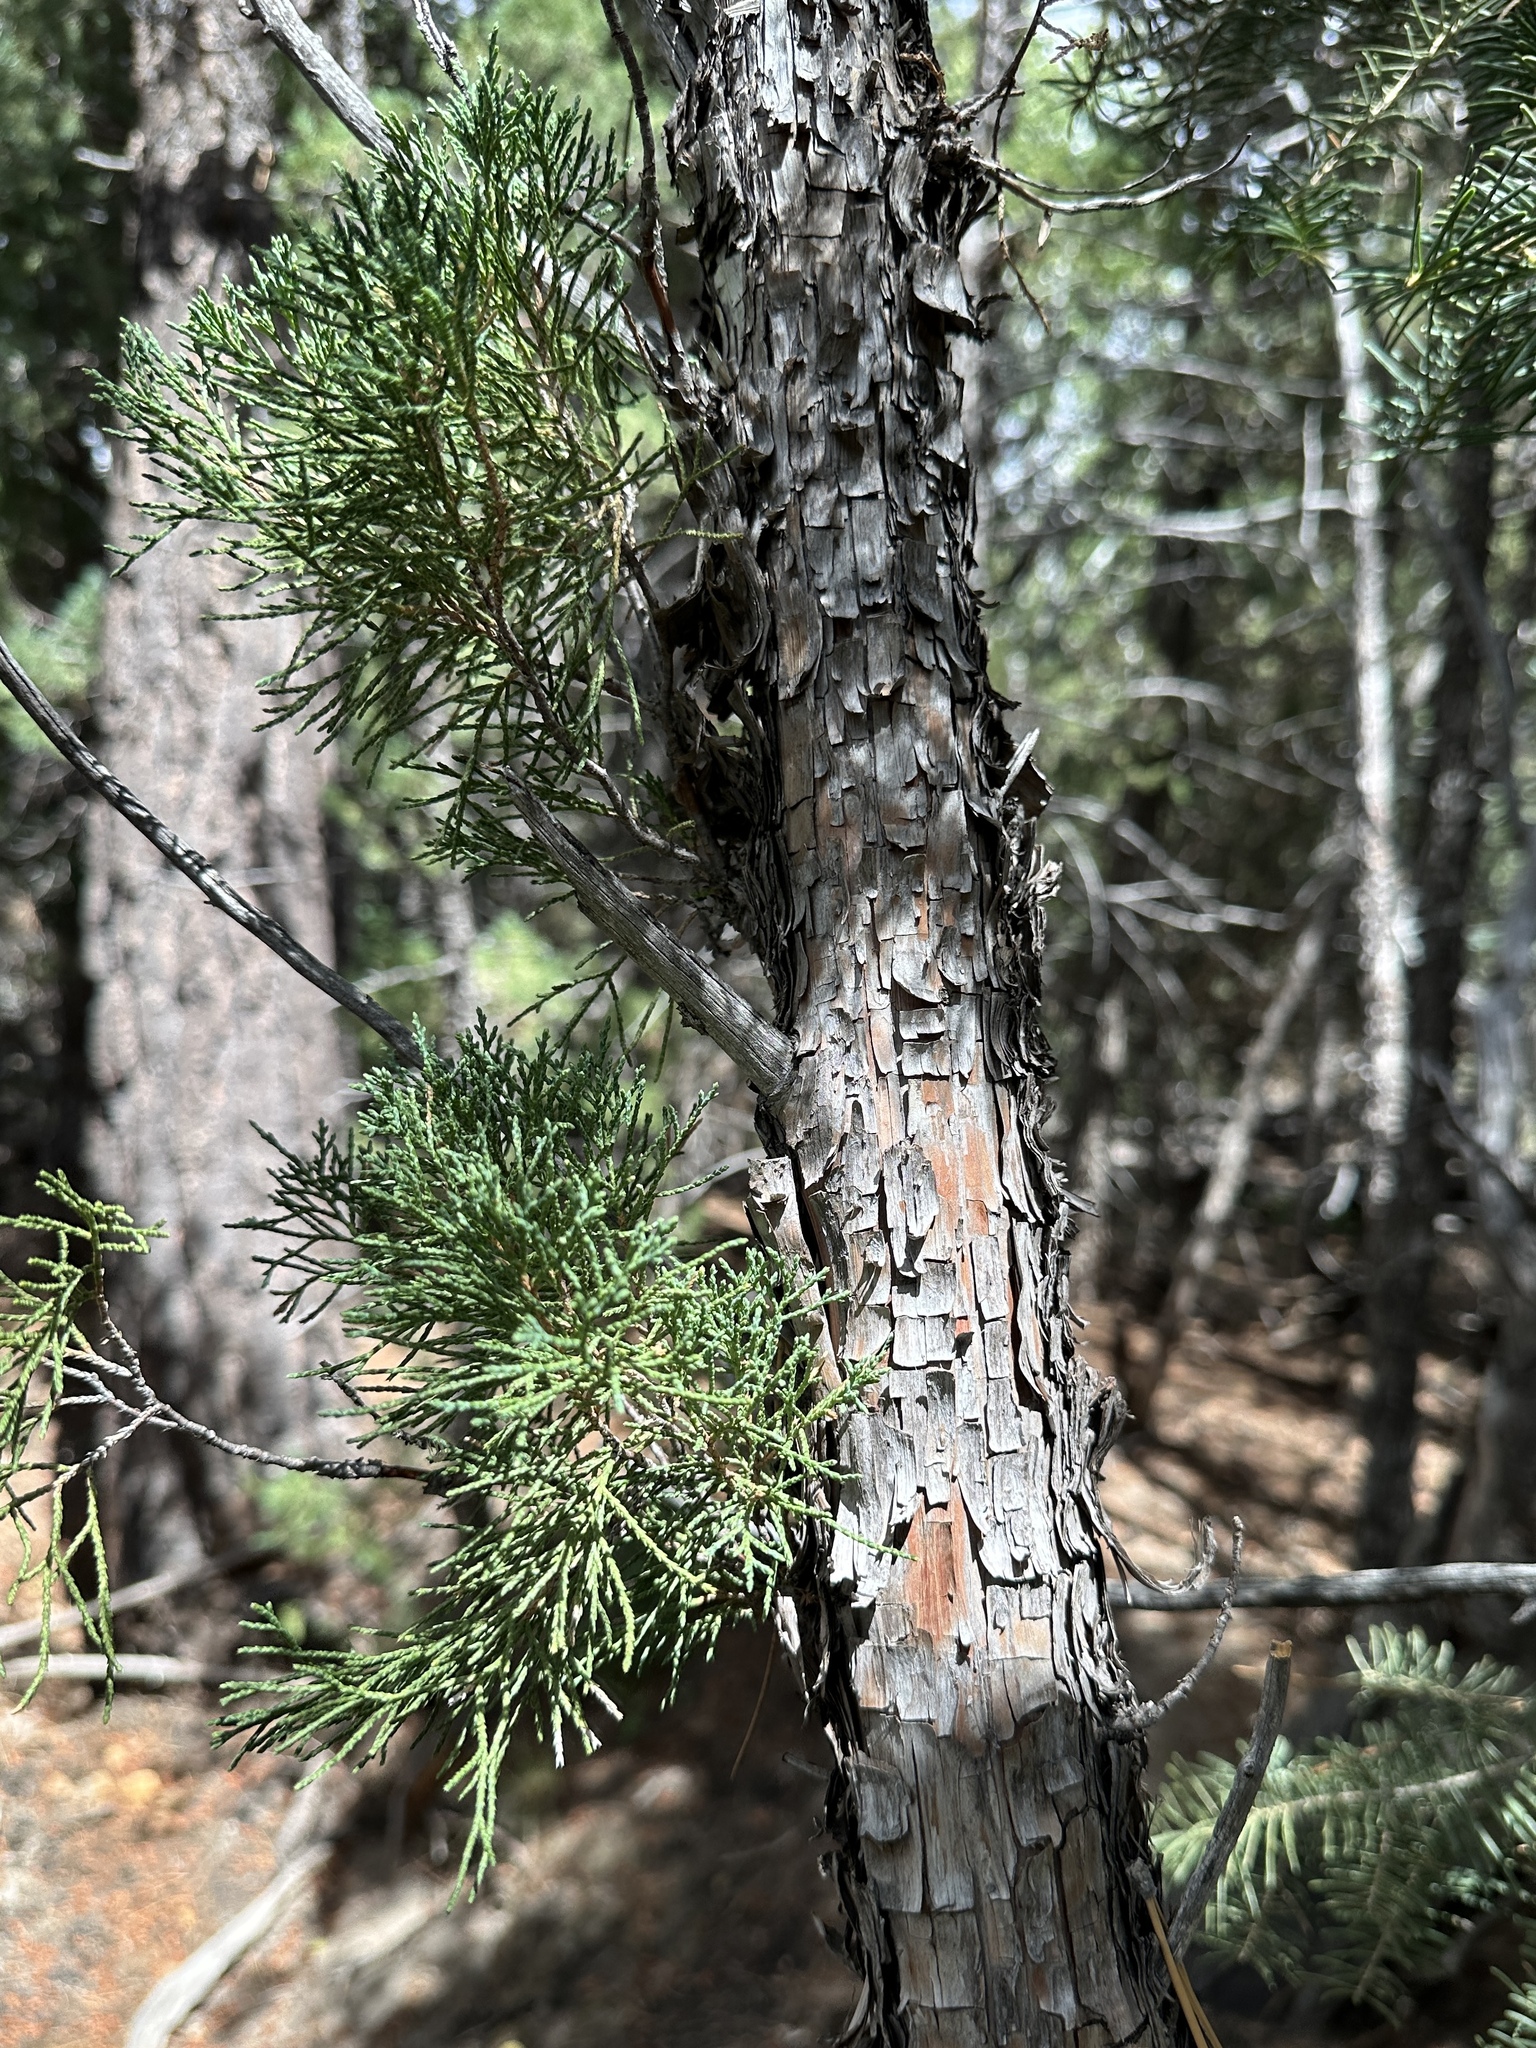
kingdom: Plantae
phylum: Tracheophyta
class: Pinopsida
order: Pinales
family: Cupressaceae
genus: Juniperus
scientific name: Juniperus scopulorum
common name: Rocky mountain juniper
